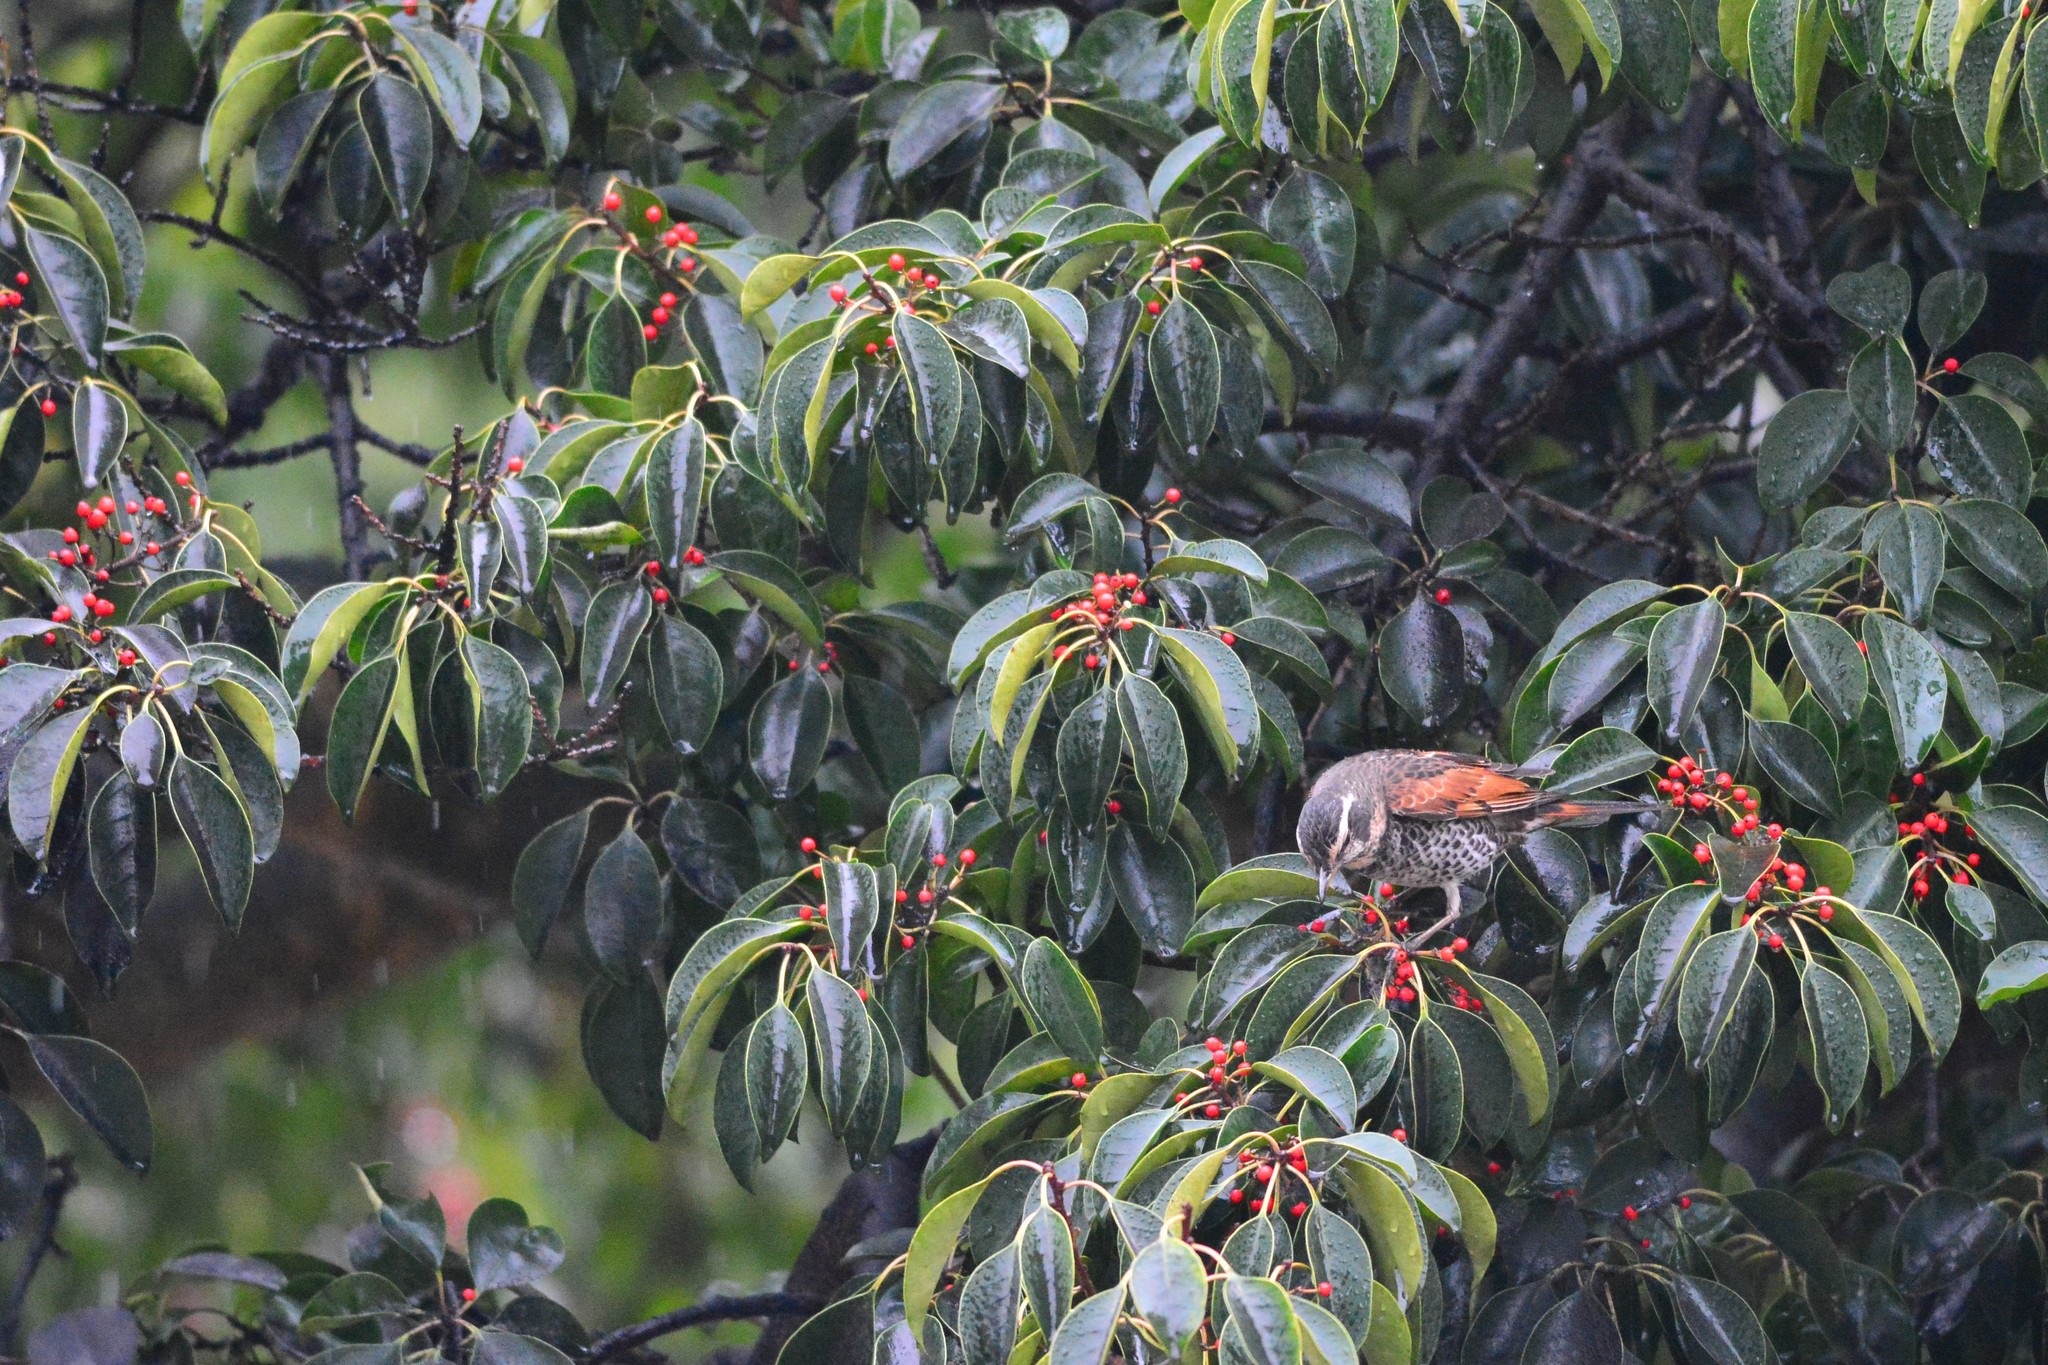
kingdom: Animalia
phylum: Chordata
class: Aves
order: Passeriformes
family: Turdidae
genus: Turdus
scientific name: Turdus eunomus
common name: Dusky thrush
